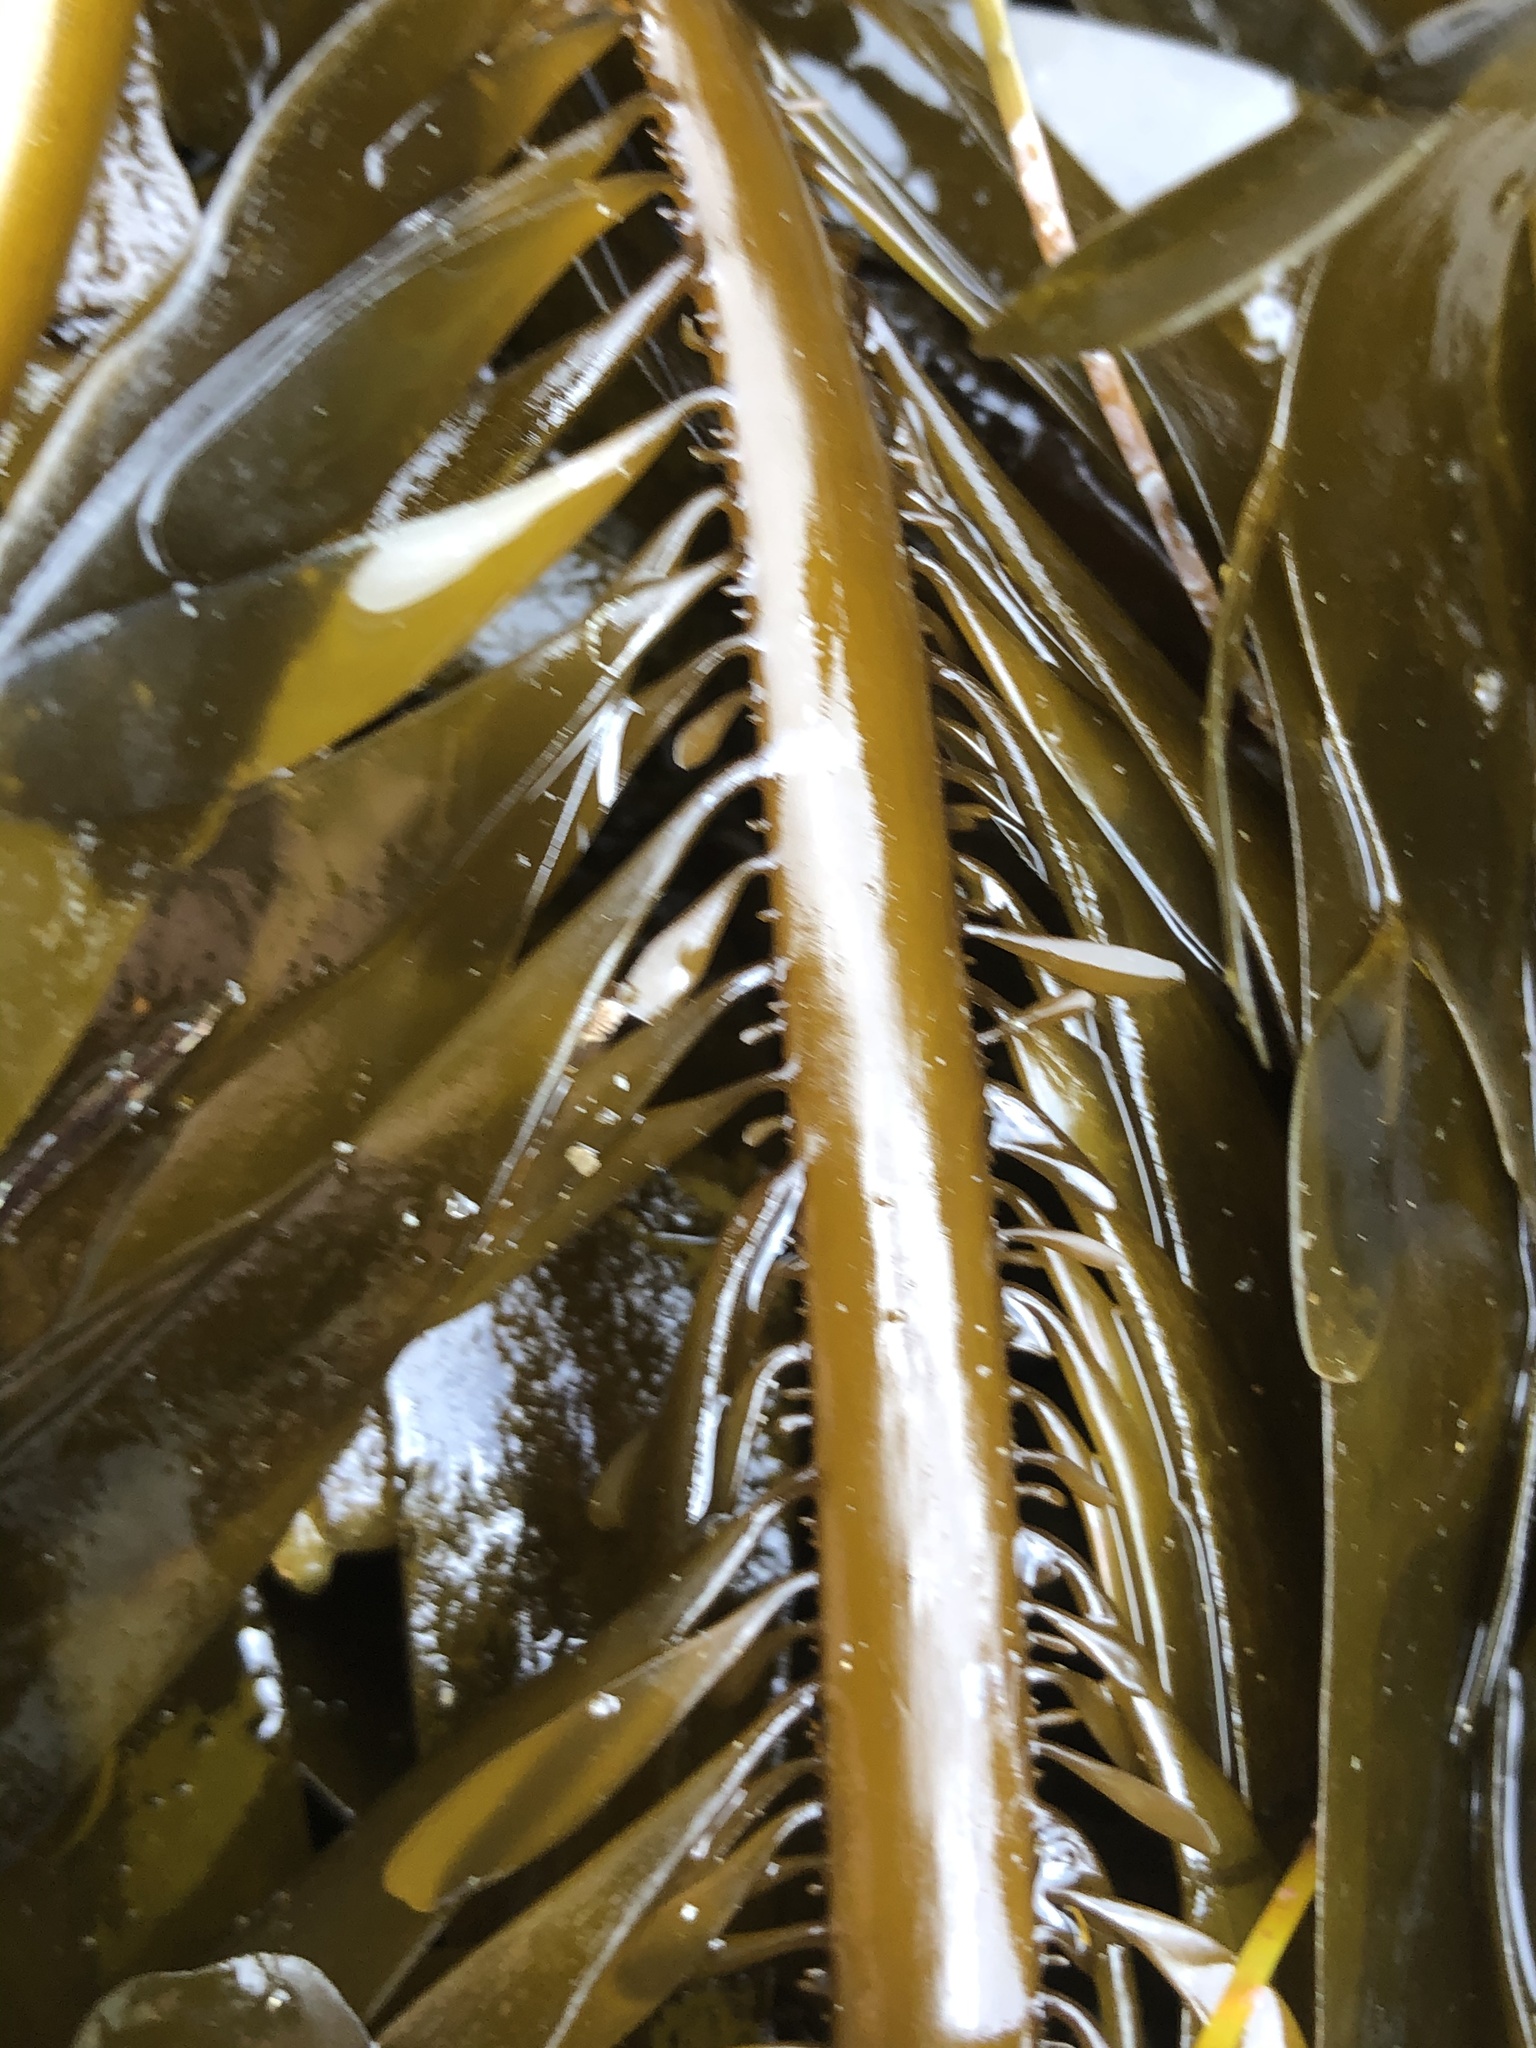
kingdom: Chromista
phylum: Ochrophyta
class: Phaeophyceae
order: Laminariales
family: Lessoniaceae
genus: Egregia
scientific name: Egregia menziesii
